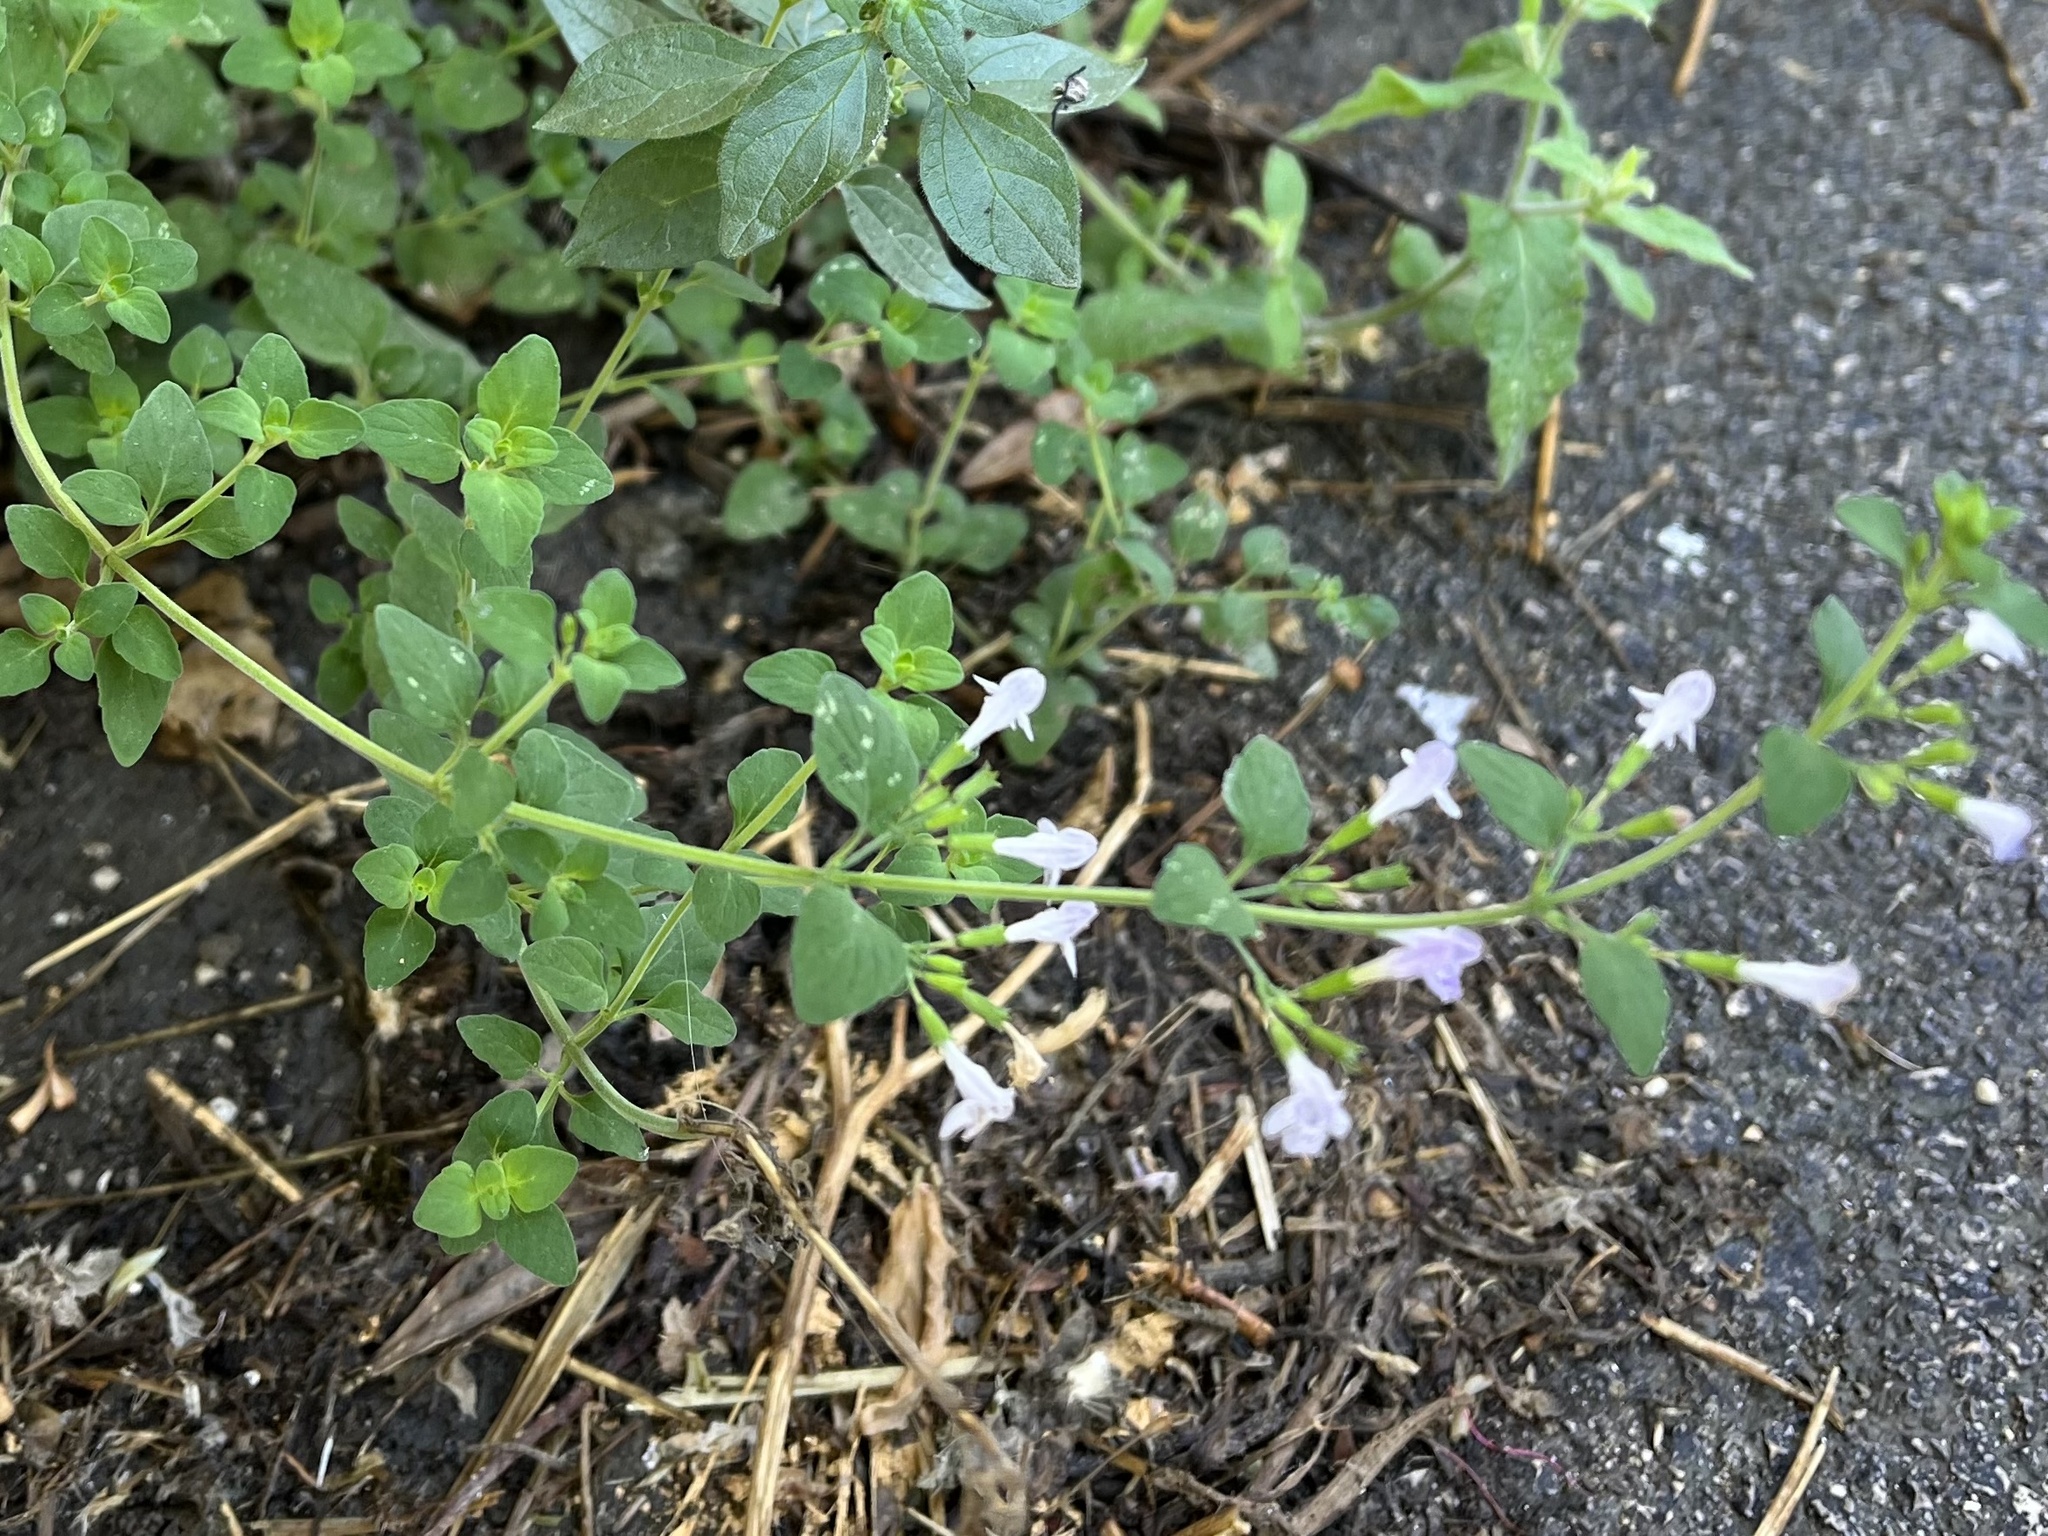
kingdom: Plantae
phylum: Tracheophyta
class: Magnoliopsida
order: Lamiales
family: Lamiaceae
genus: Clinopodium
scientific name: Clinopodium nepeta
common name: Lesser calamint
